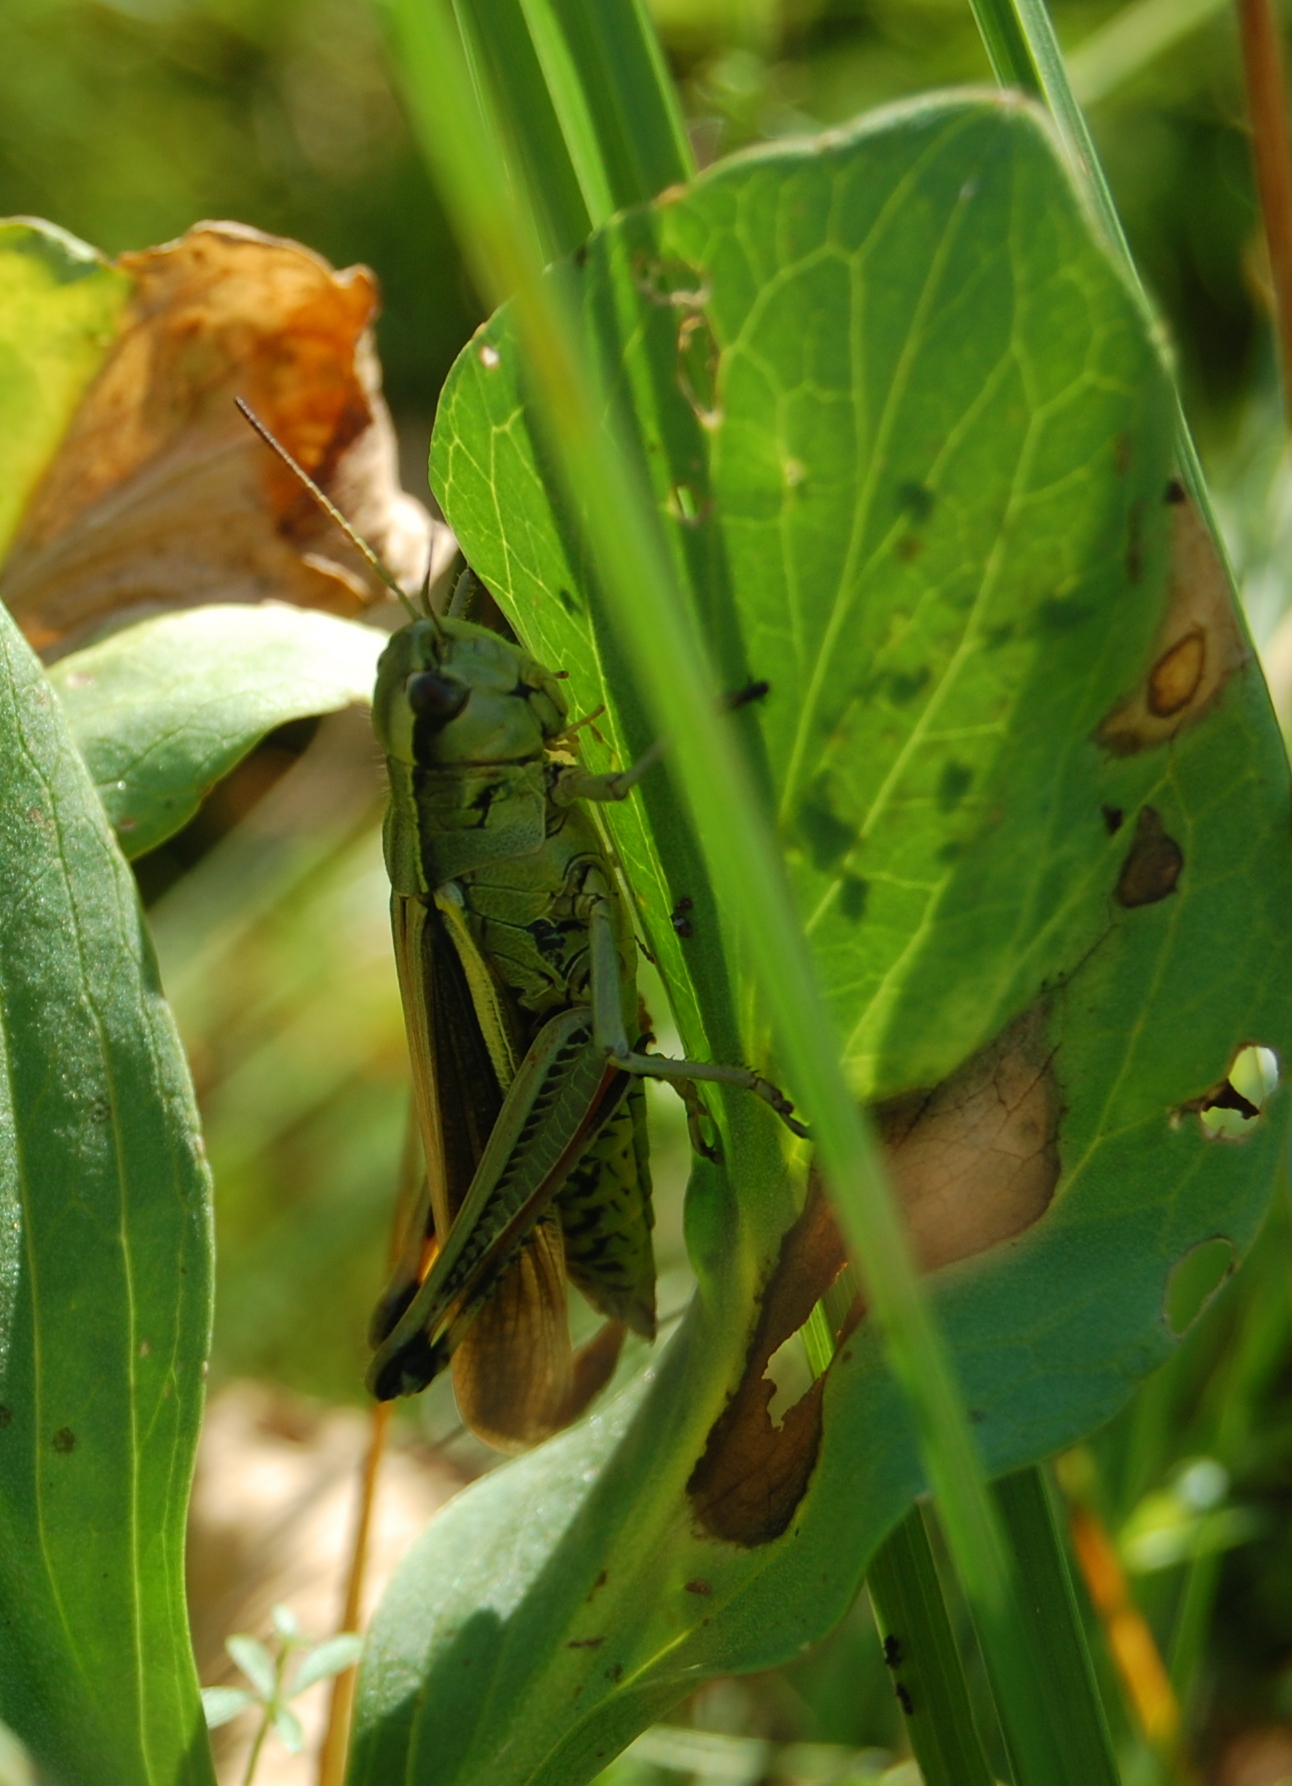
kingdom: Animalia
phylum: Arthropoda
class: Insecta
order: Orthoptera
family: Acrididae
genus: Stethophyma
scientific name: Stethophyma grossum
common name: Large marsh grasshopper
